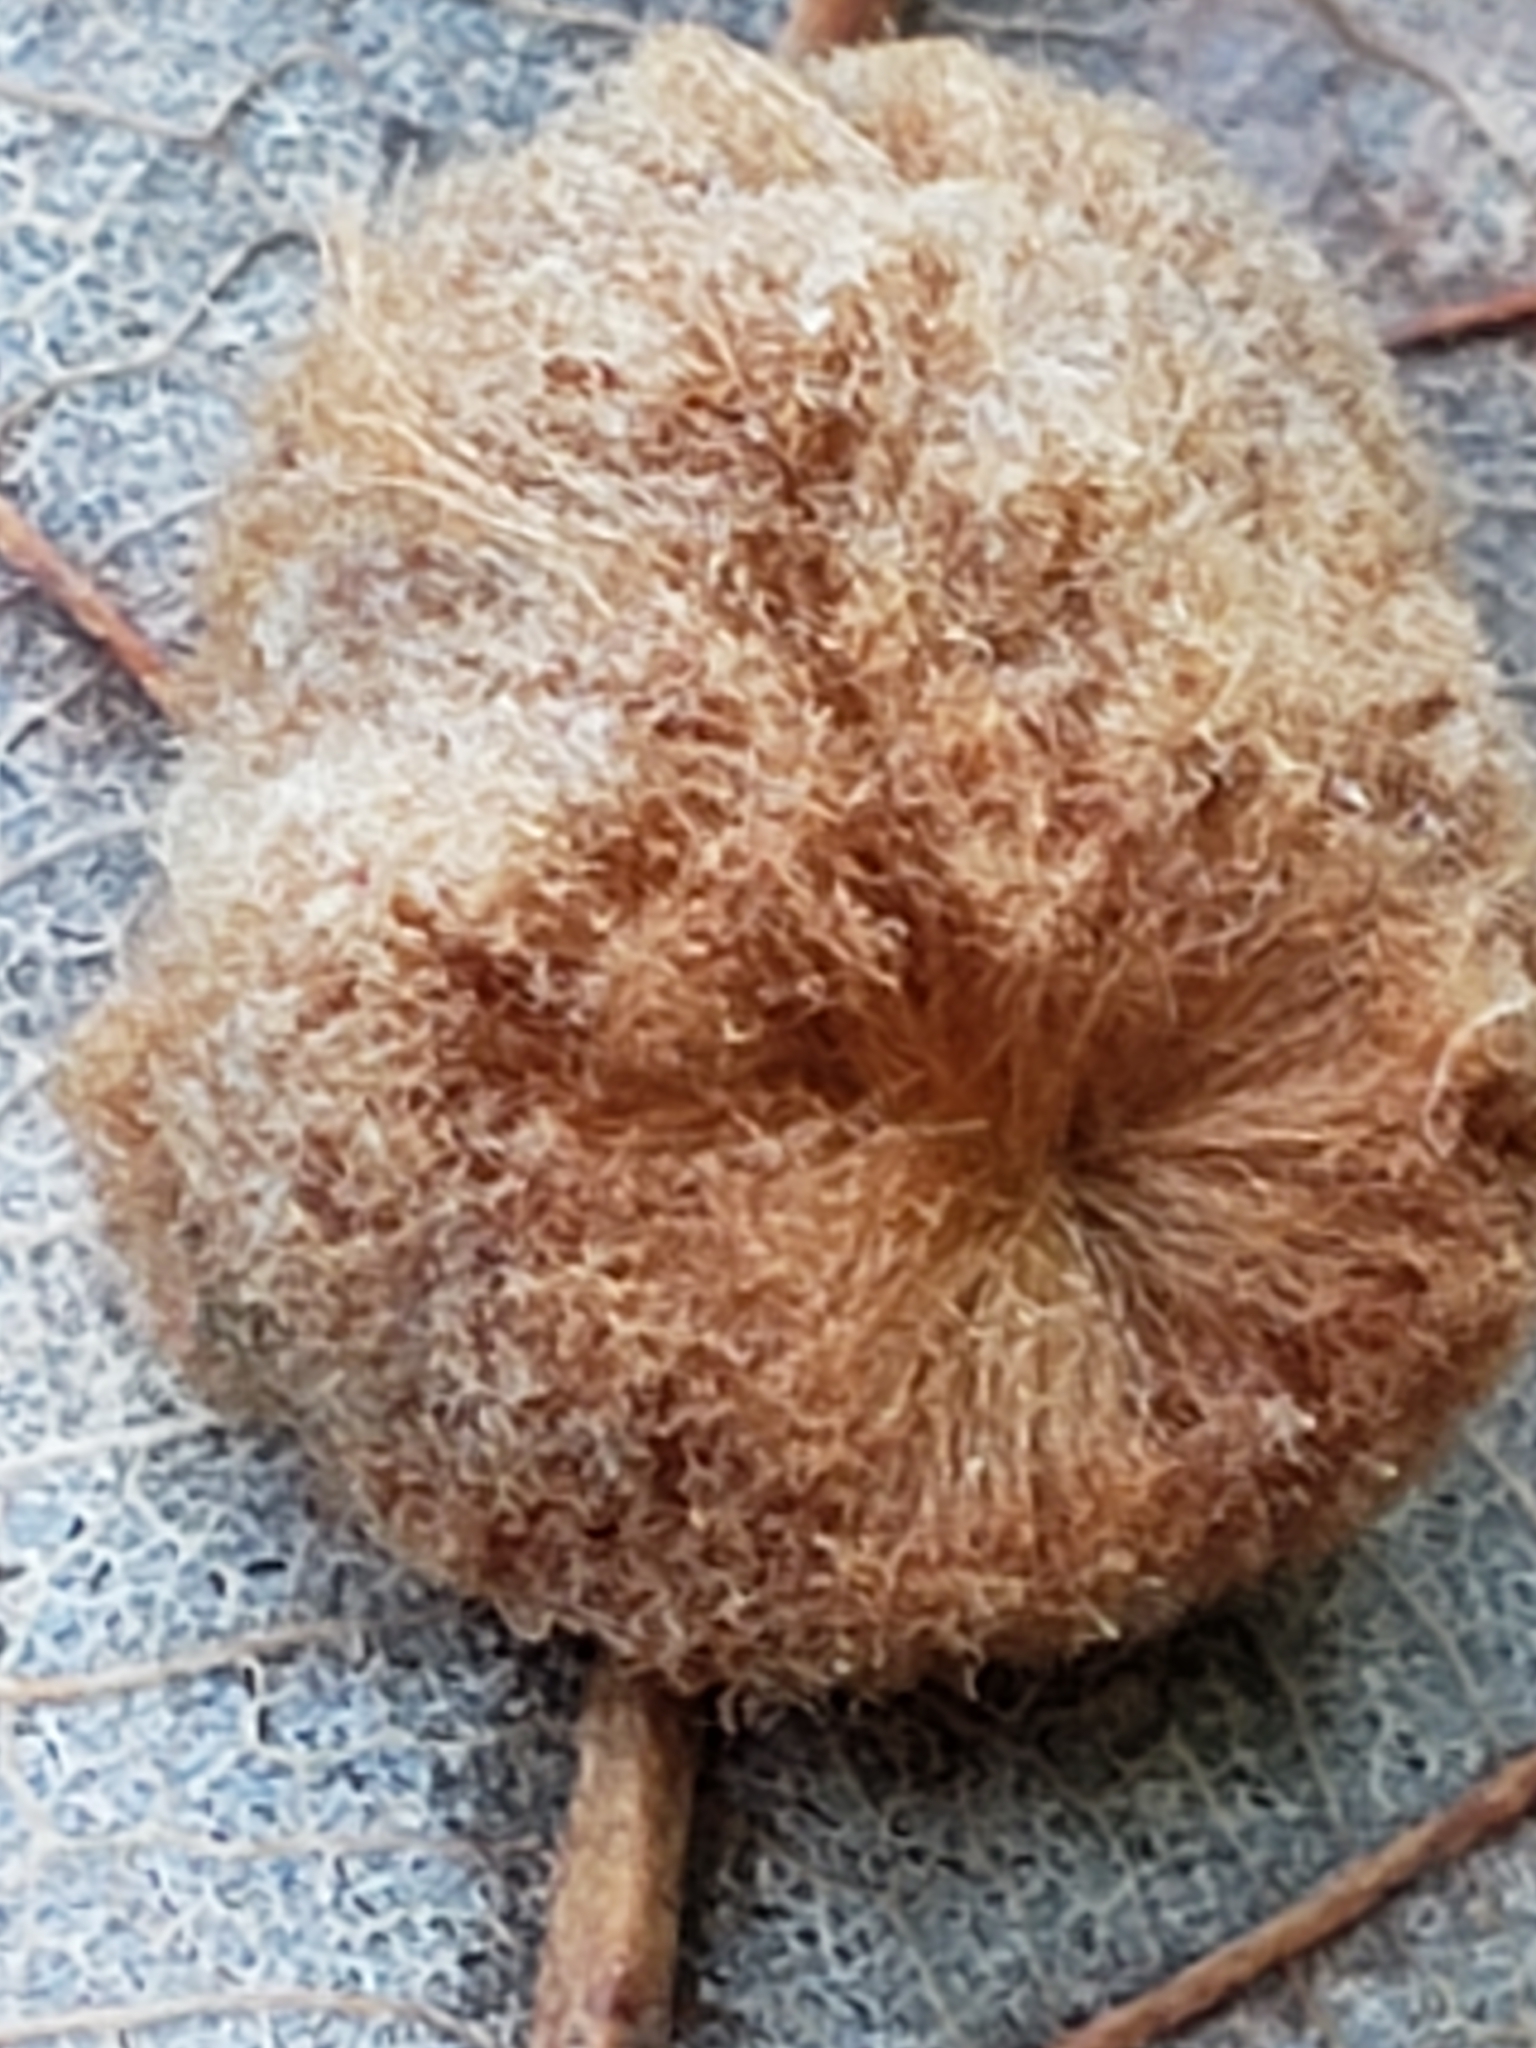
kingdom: Animalia
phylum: Arthropoda
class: Insecta
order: Hymenoptera
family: Cynipidae
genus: Andricus
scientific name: Andricus quercusflocci
